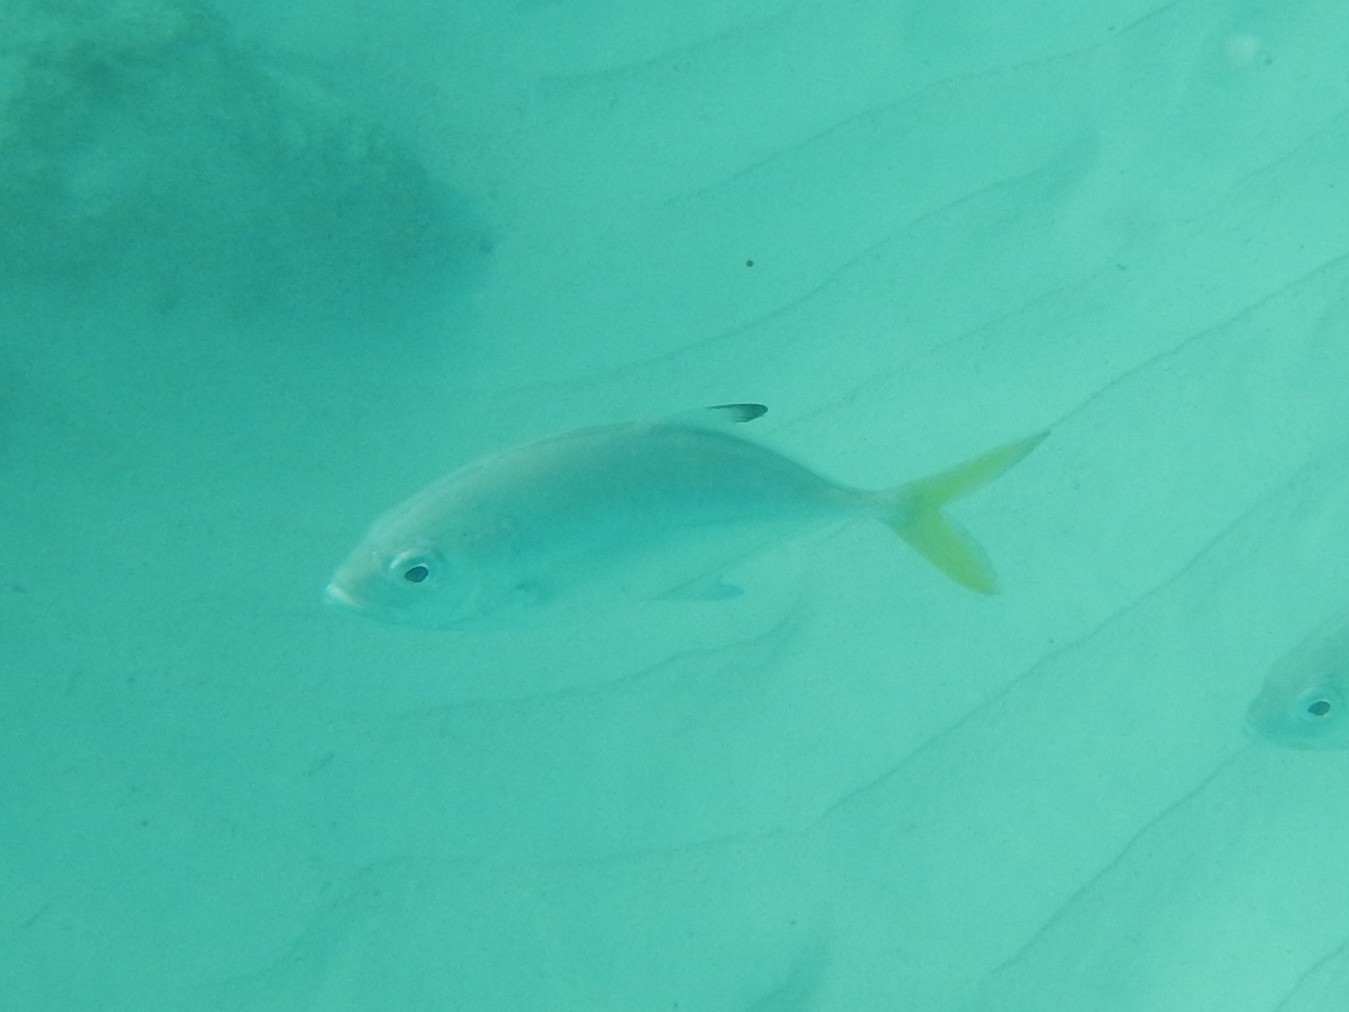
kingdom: Animalia
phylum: Chordata
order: Perciformes
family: Carangidae
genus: Caranx
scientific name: Caranx latus
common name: Horse eye jack
